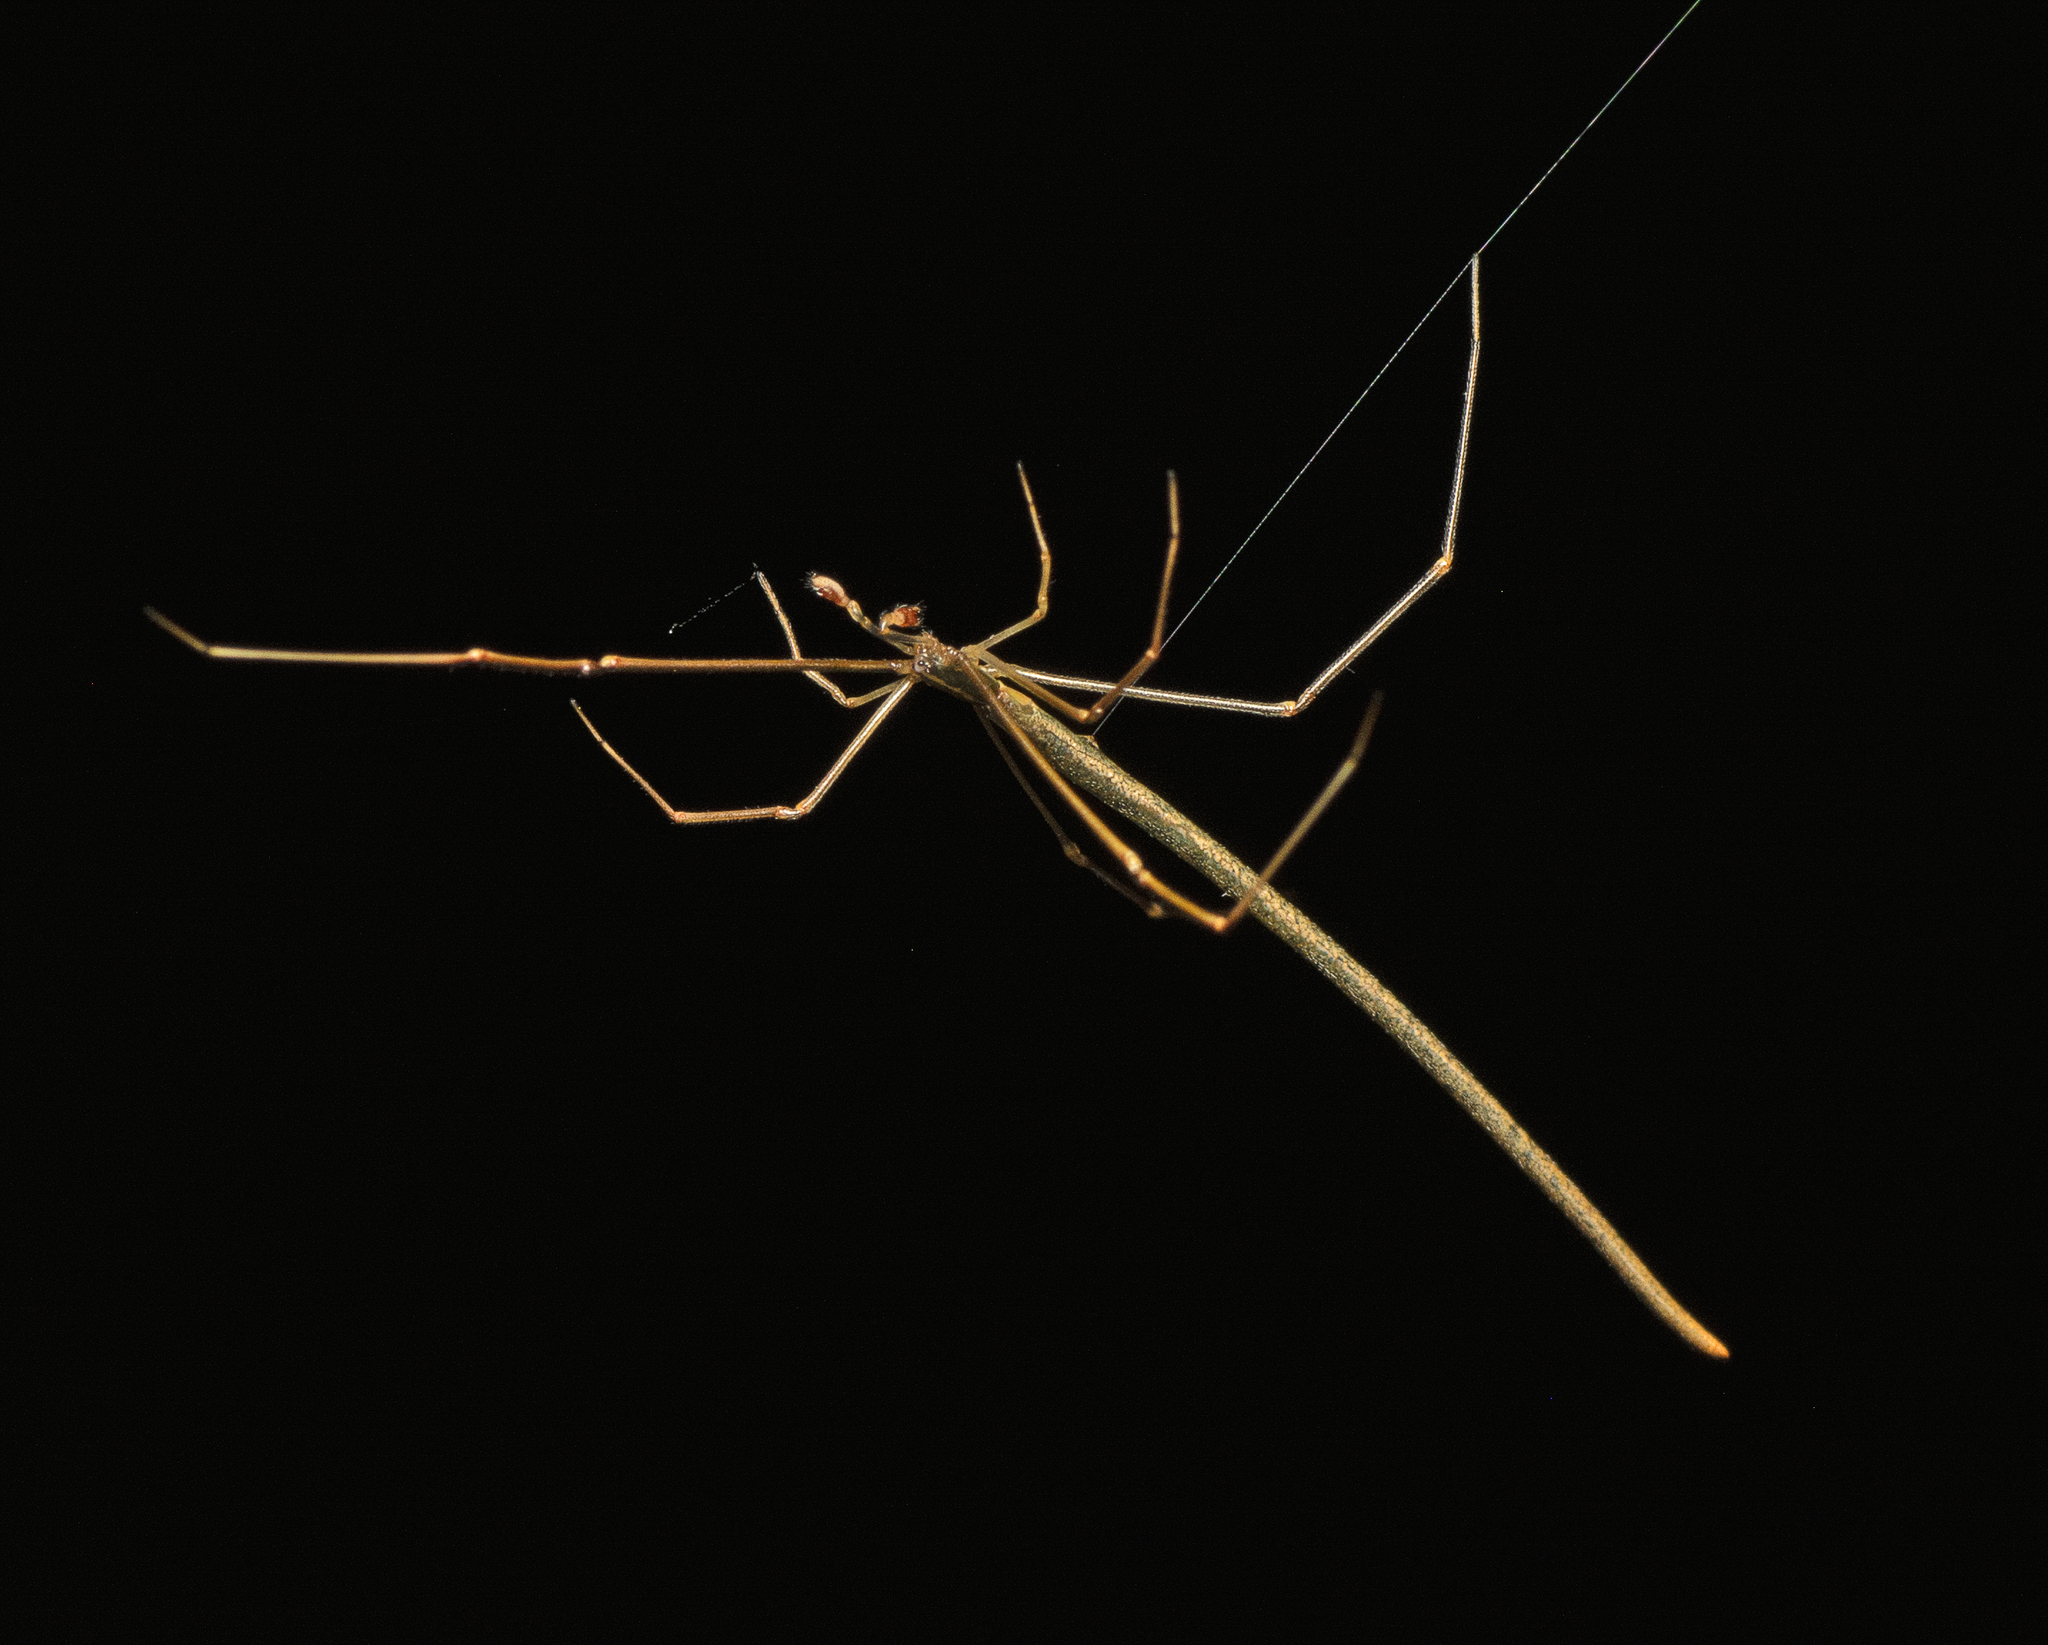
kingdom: Animalia
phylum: Arthropoda
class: Arachnida
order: Araneae
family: Theridiidae
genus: Ariamnes
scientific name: Ariamnes colubrinus
